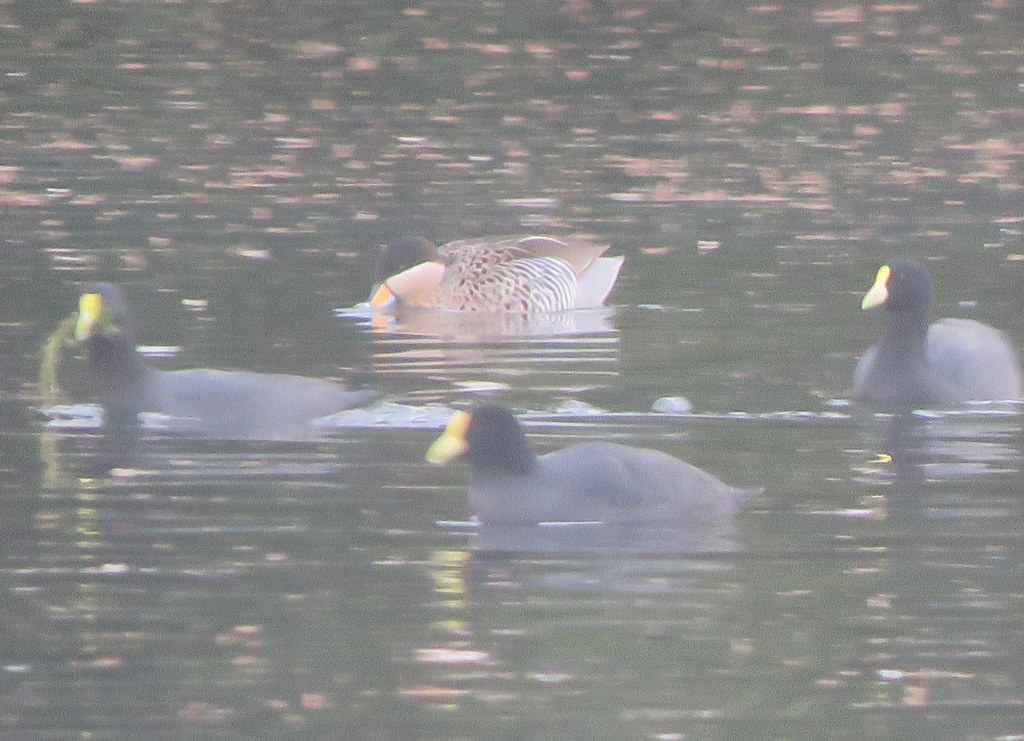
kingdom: Animalia
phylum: Chordata
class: Aves
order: Anseriformes
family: Anatidae
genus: Spatula
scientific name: Spatula versicolor
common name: Silver teal
